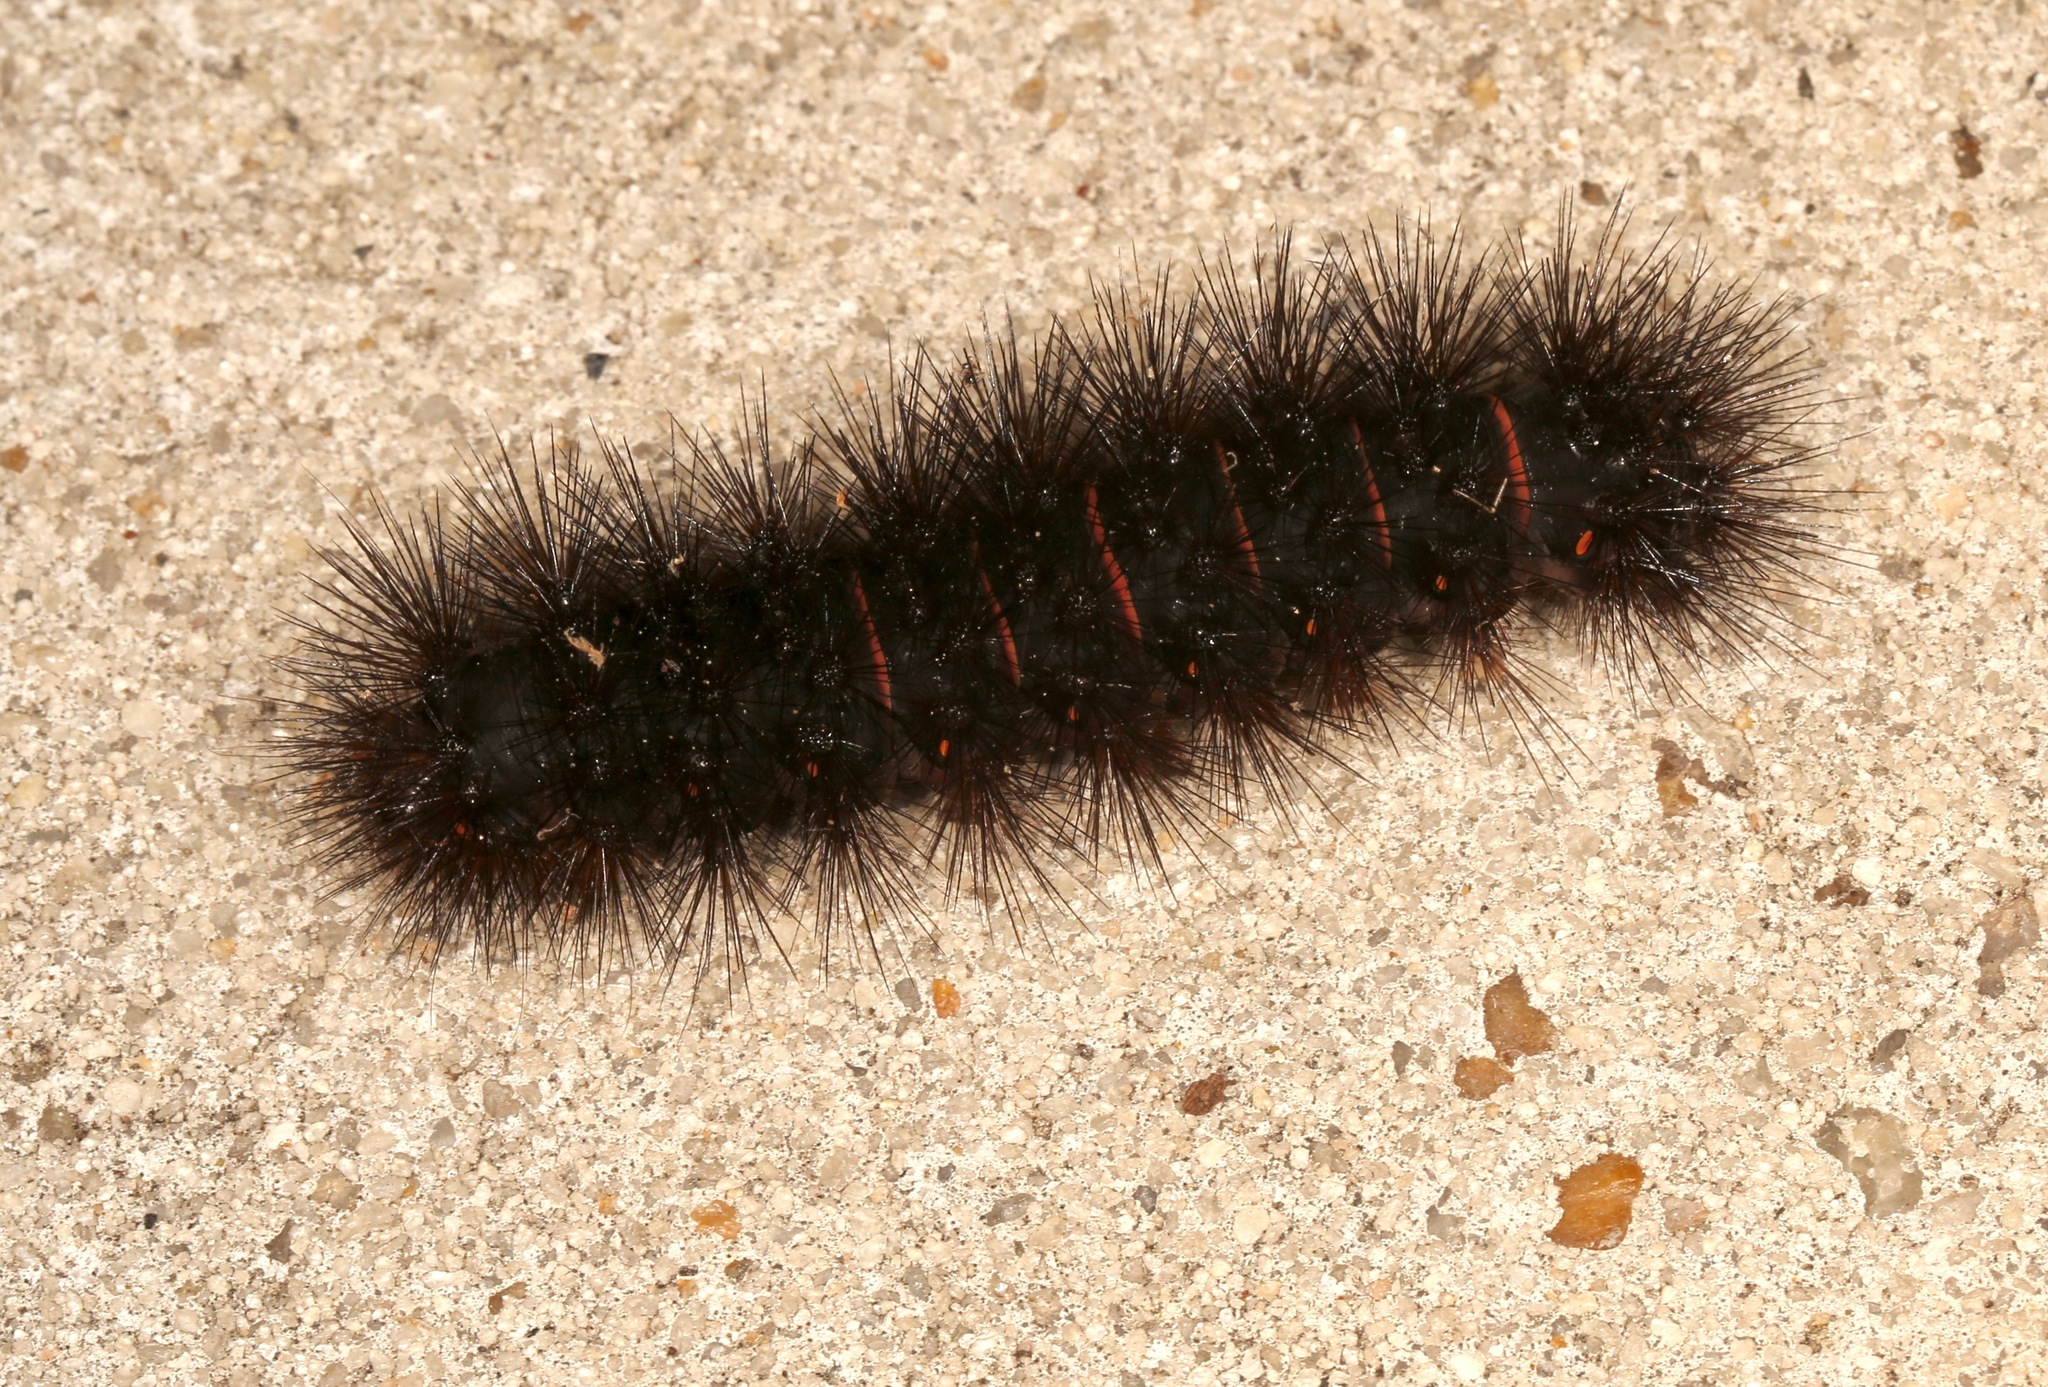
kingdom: Animalia
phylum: Arthropoda
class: Insecta
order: Lepidoptera
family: Erebidae
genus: Hypercompe
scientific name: Hypercompe scribonia
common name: Giant leopard moth
